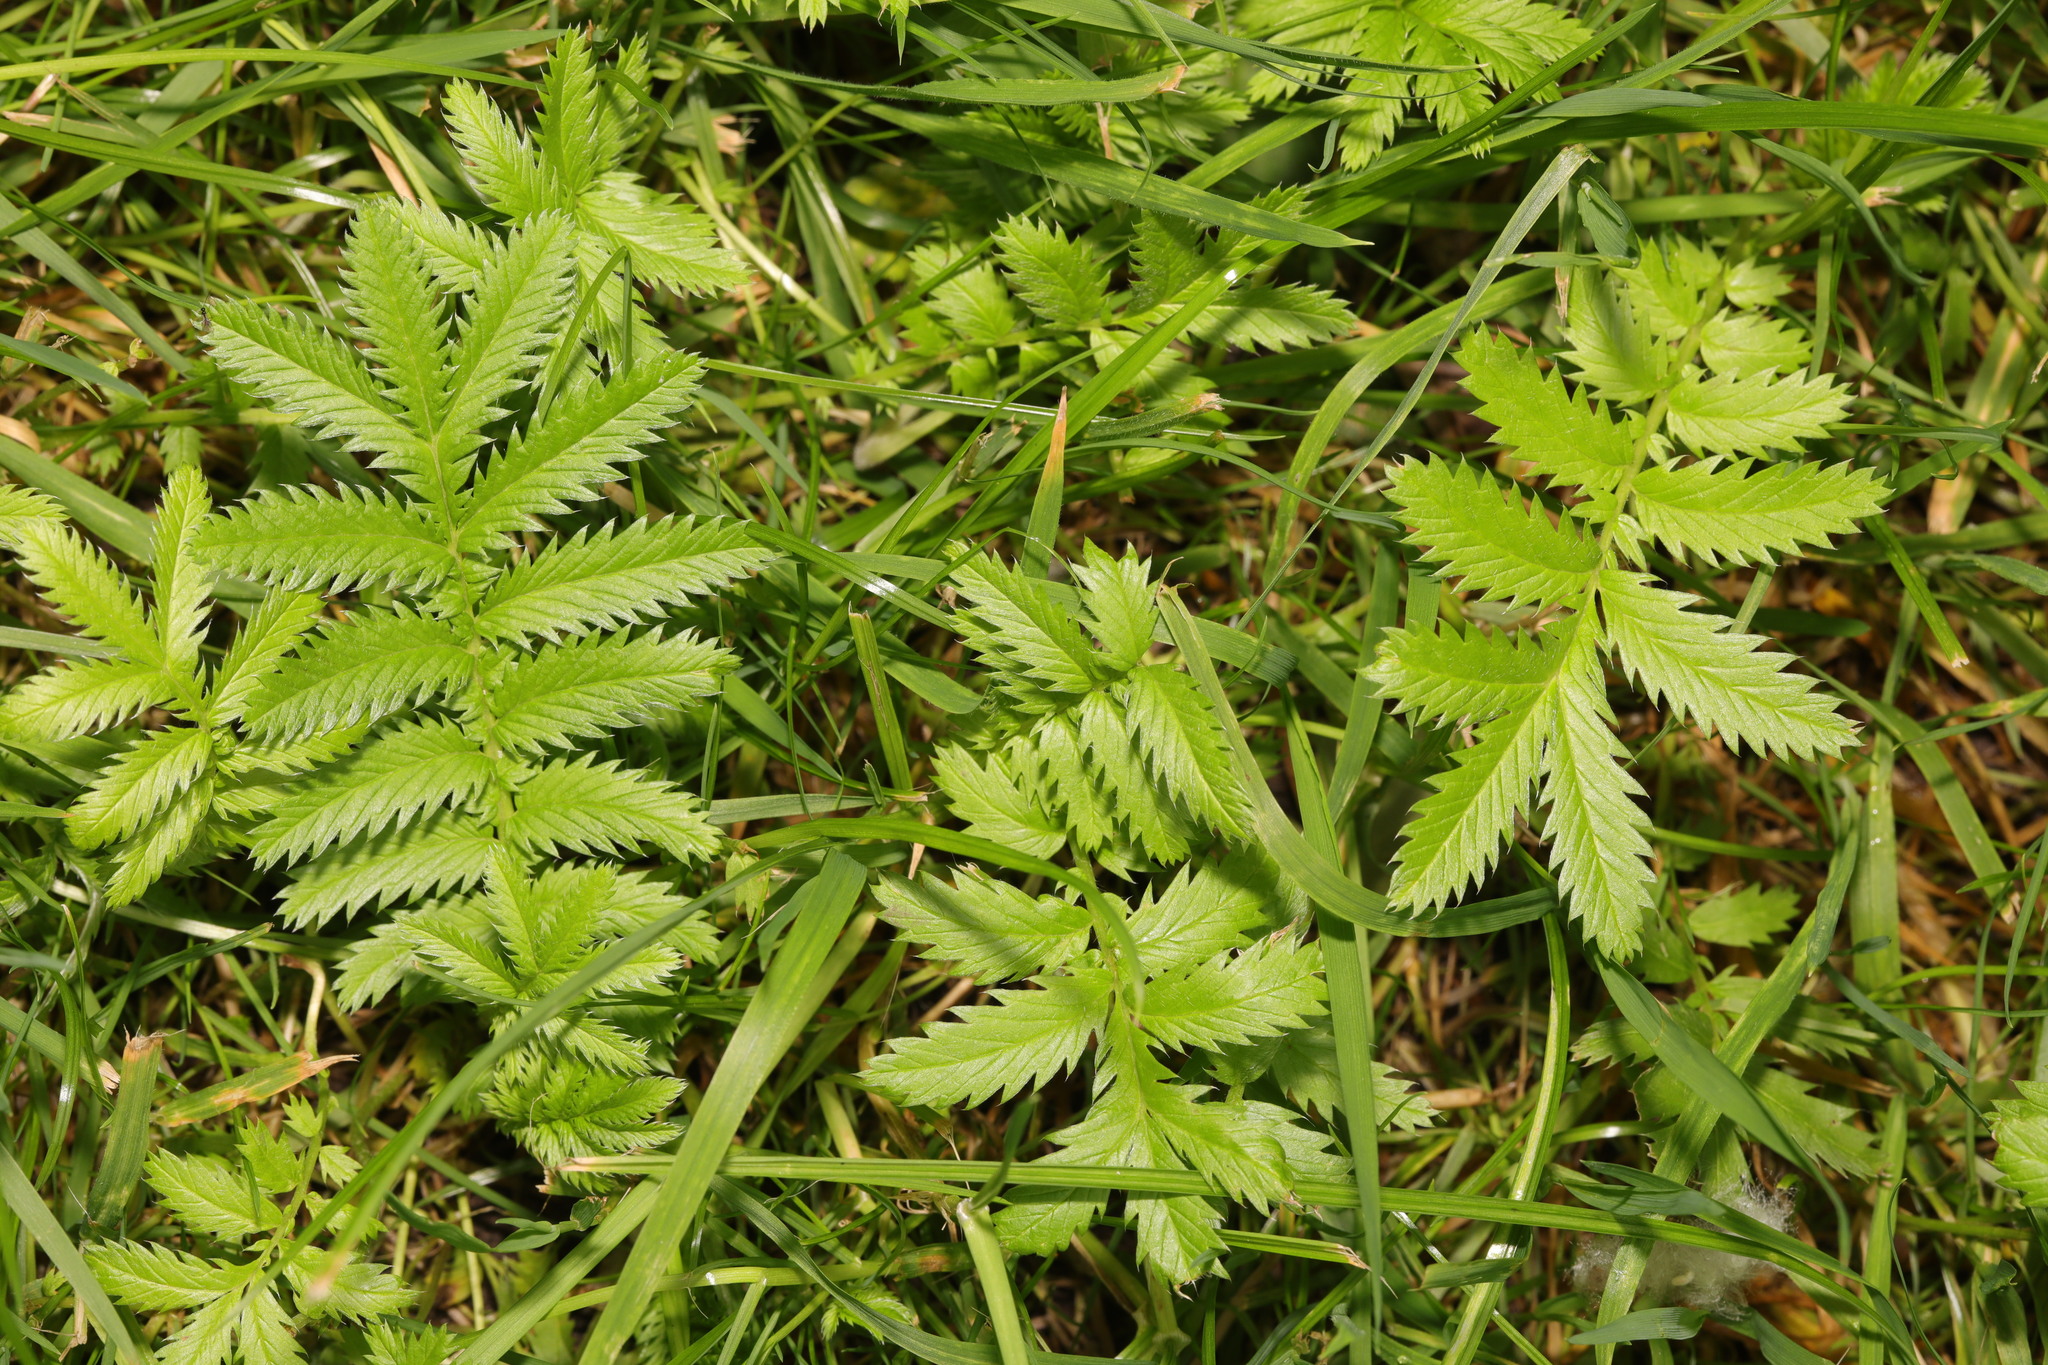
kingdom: Plantae
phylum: Tracheophyta
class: Magnoliopsida
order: Rosales
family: Rosaceae
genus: Argentina
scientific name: Argentina anserina
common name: Common silverweed
